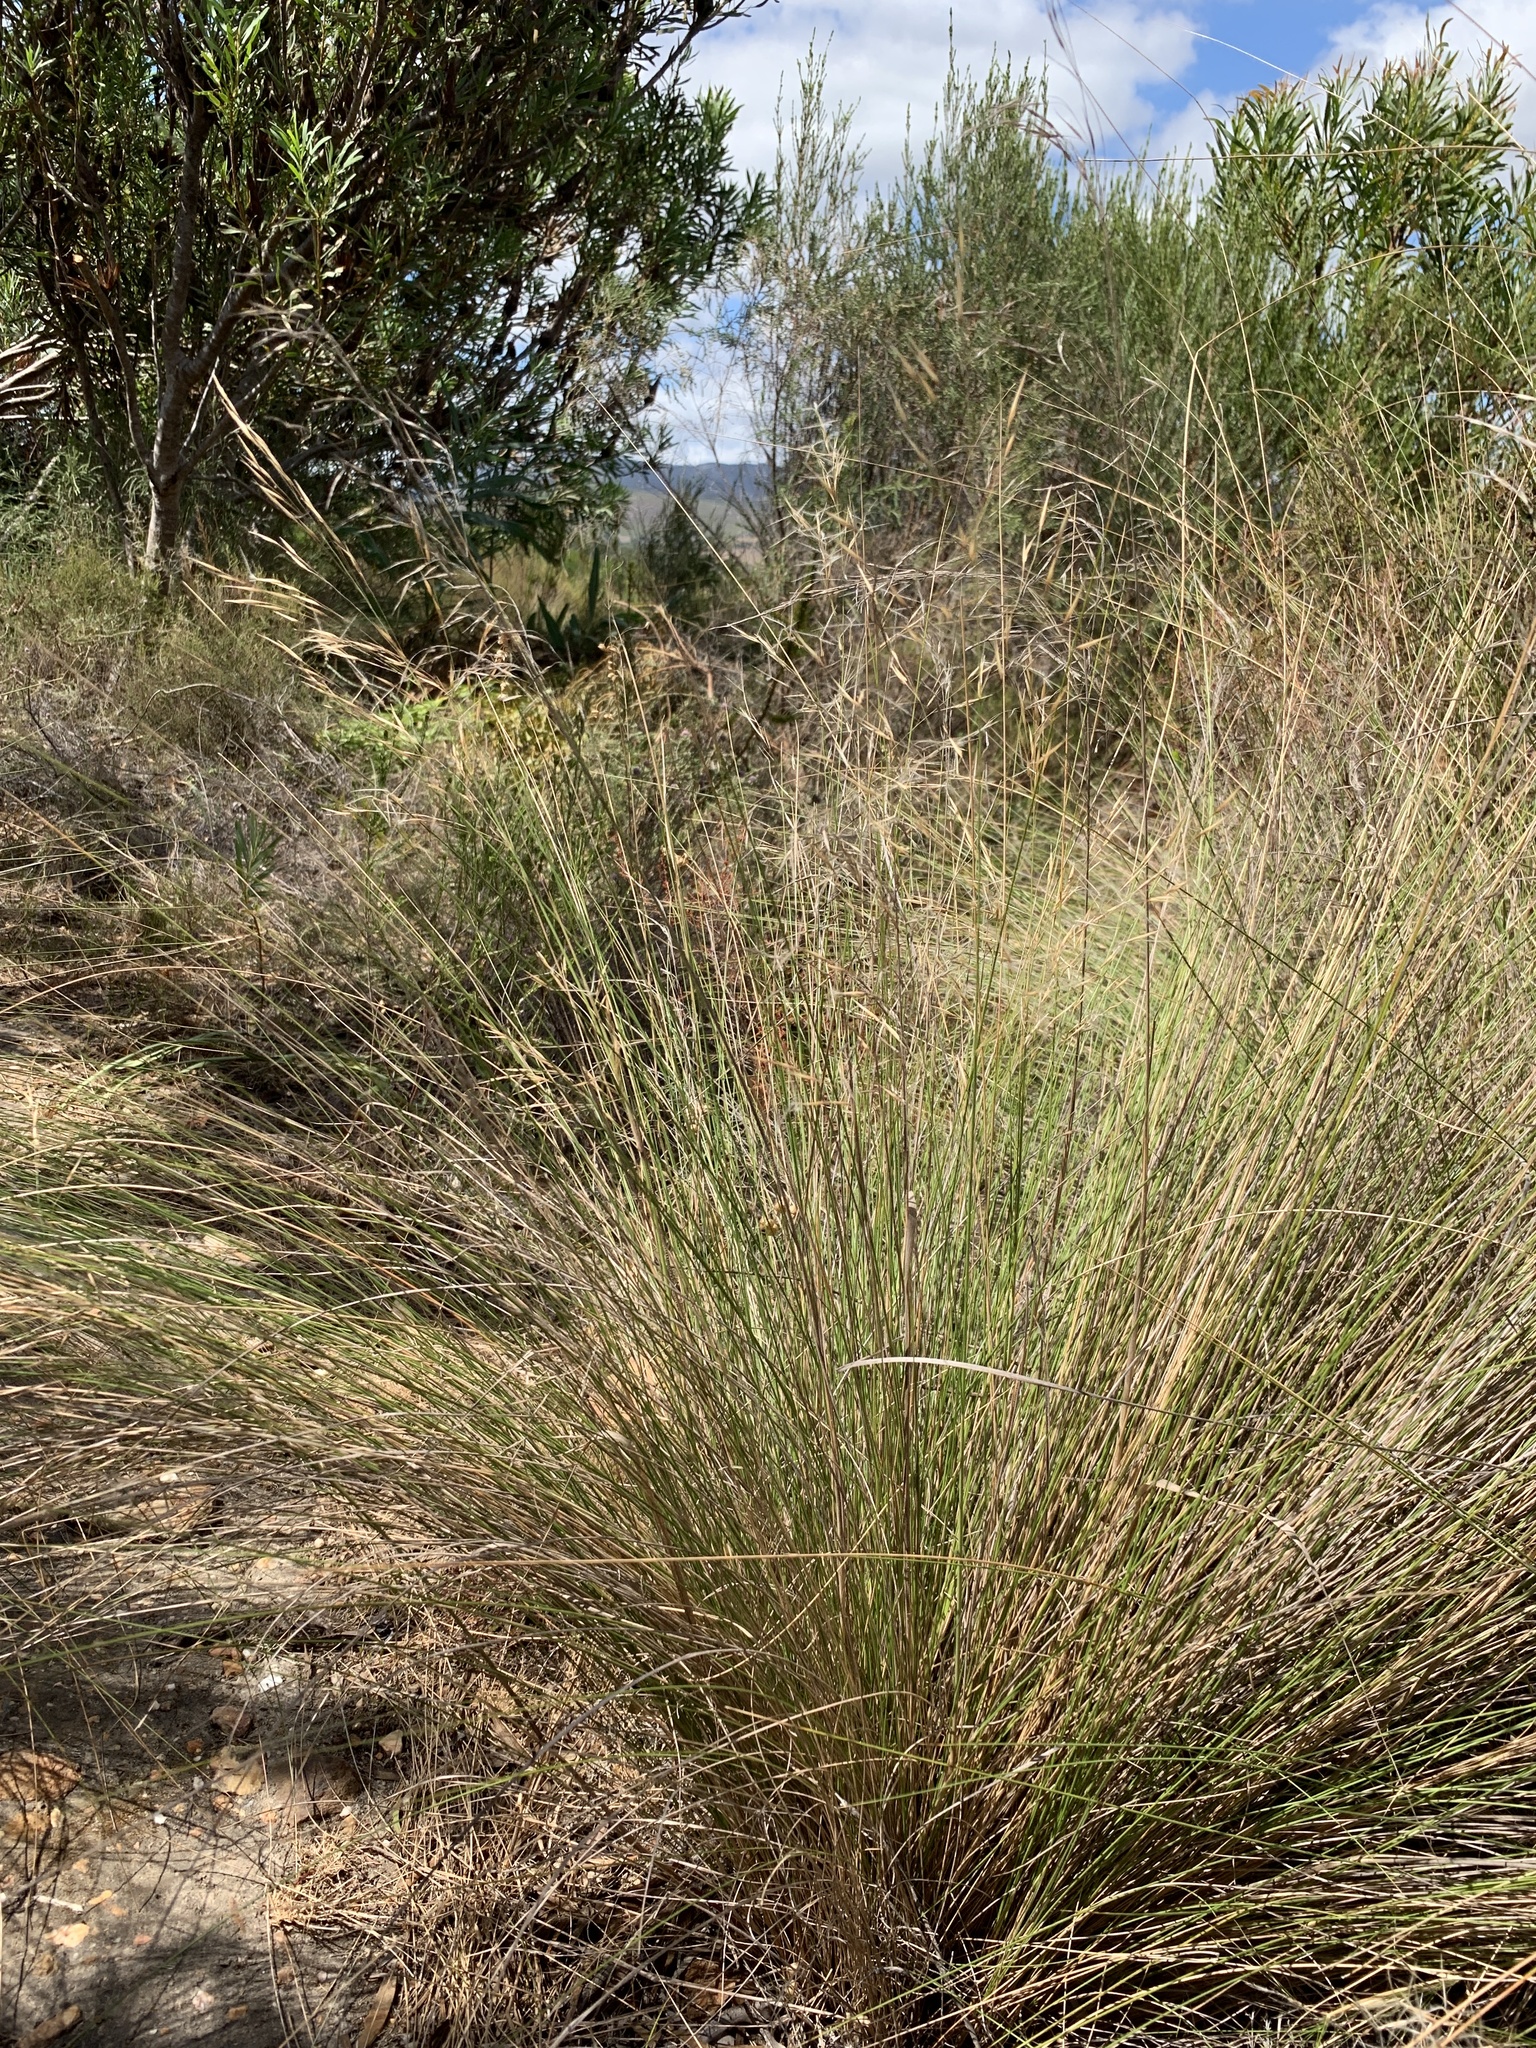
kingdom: Plantae
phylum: Tracheophyta
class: Liliopsida
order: Poales
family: Poaceae
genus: Stipagrostis
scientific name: Stipagrostis zeyheri
